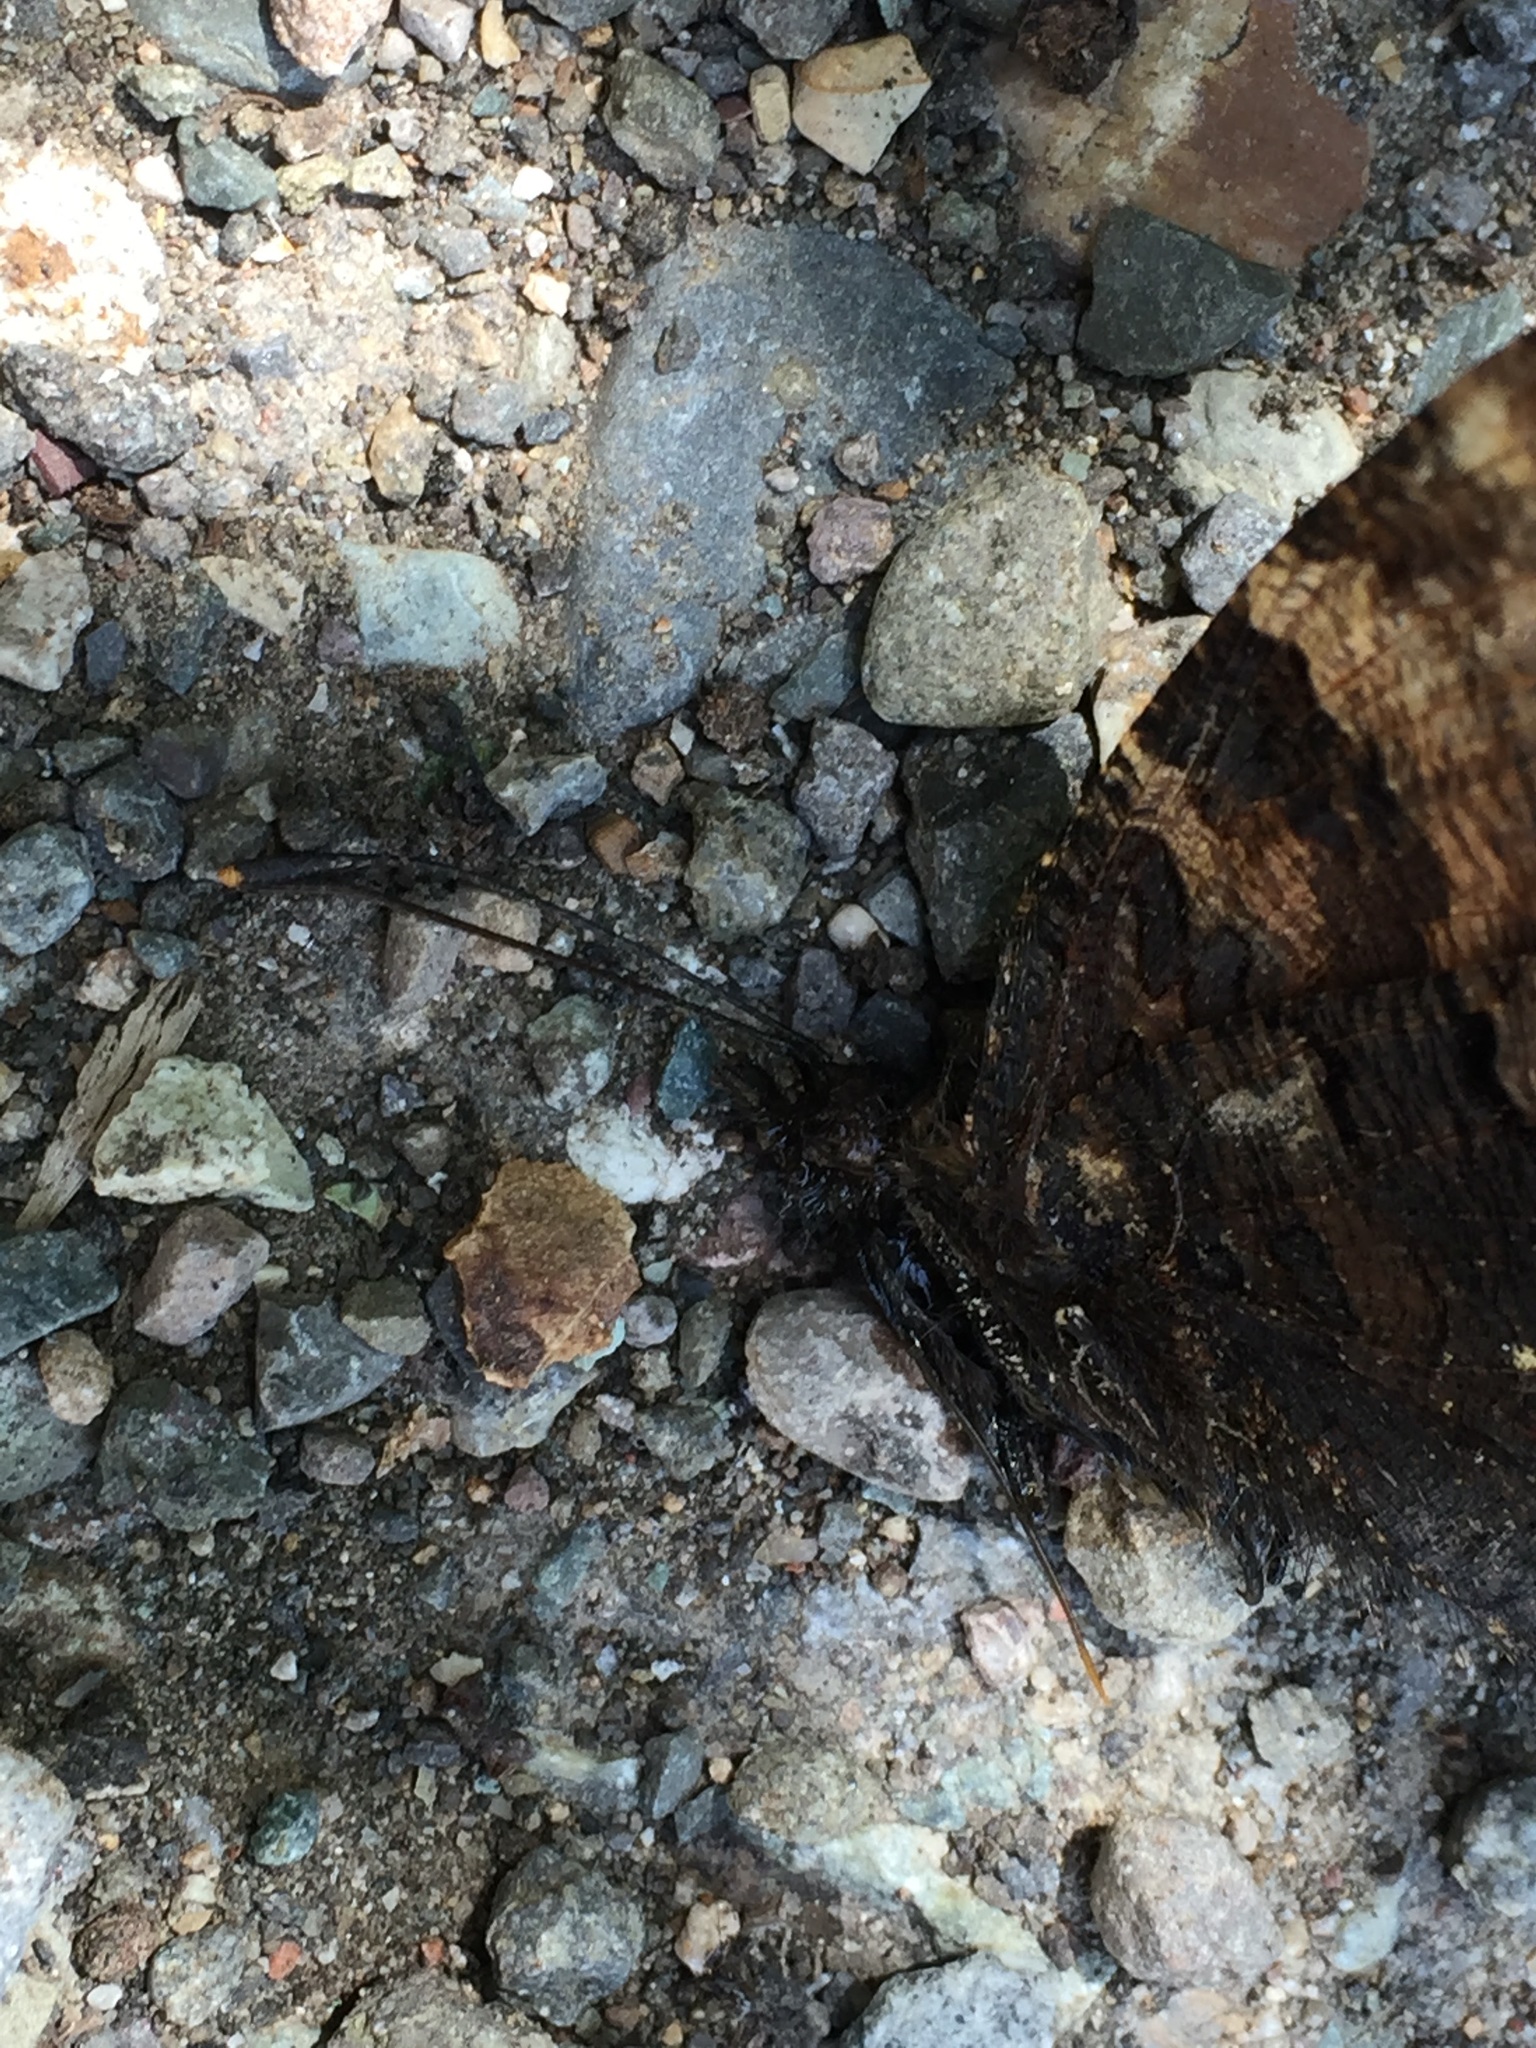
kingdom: Animalia
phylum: Arthropoda
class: Insecta
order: Lepidoptera
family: Nymphalidae
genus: Nymphalis
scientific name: Nymphalis polychloros
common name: Large tortoiseshell
